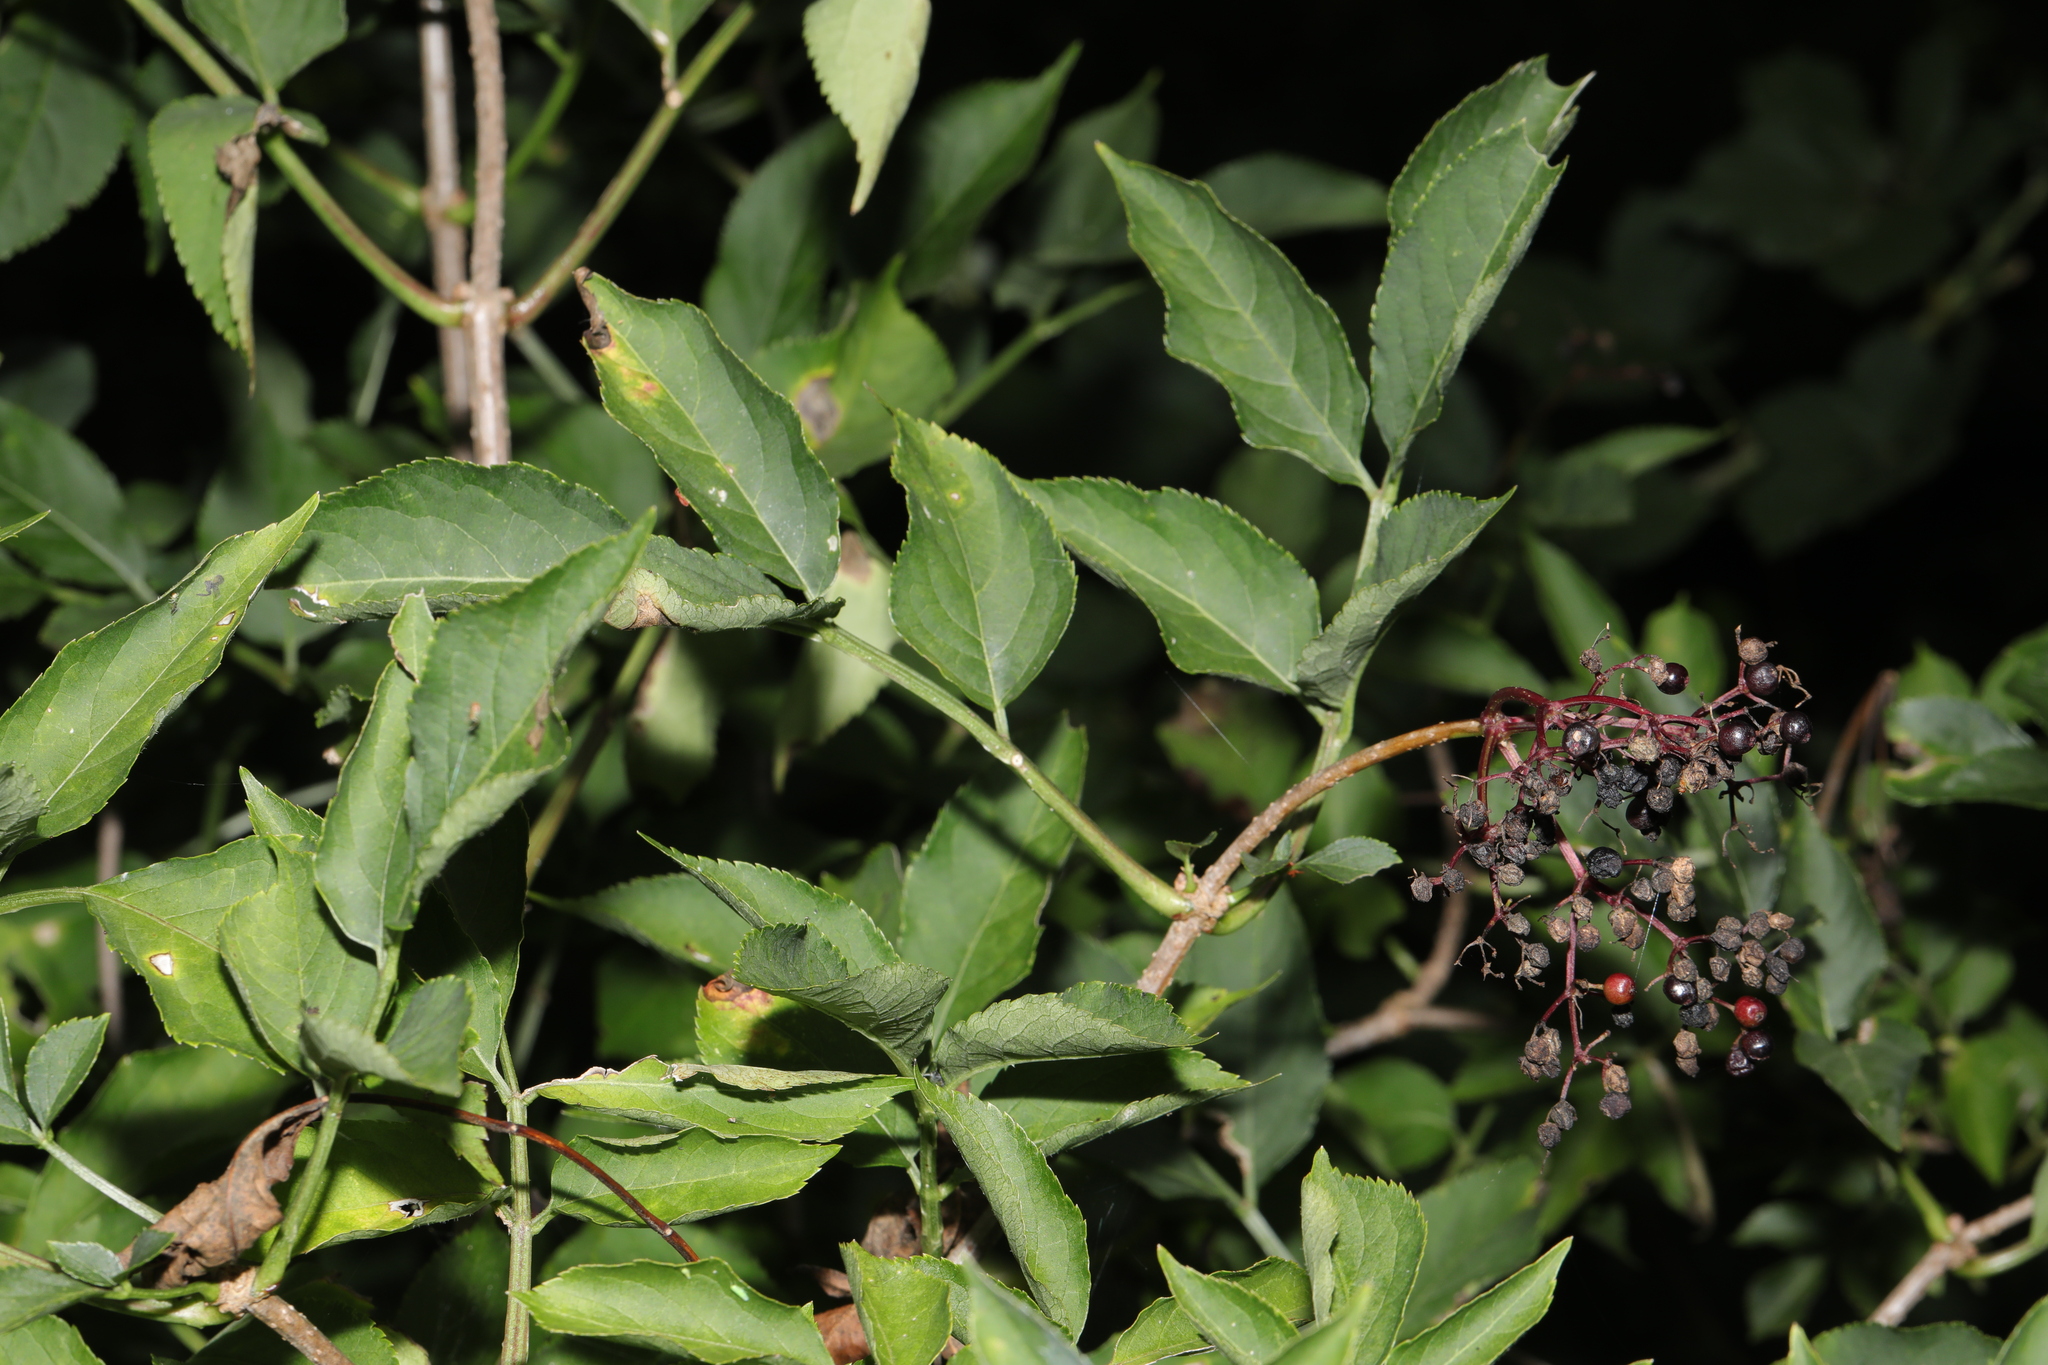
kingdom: Plantae
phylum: Tracheophyta
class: Magnoliopsida
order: Dipsacales
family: Viburnaceae
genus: Sambucus
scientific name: Sambucus nigra
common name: Elder
